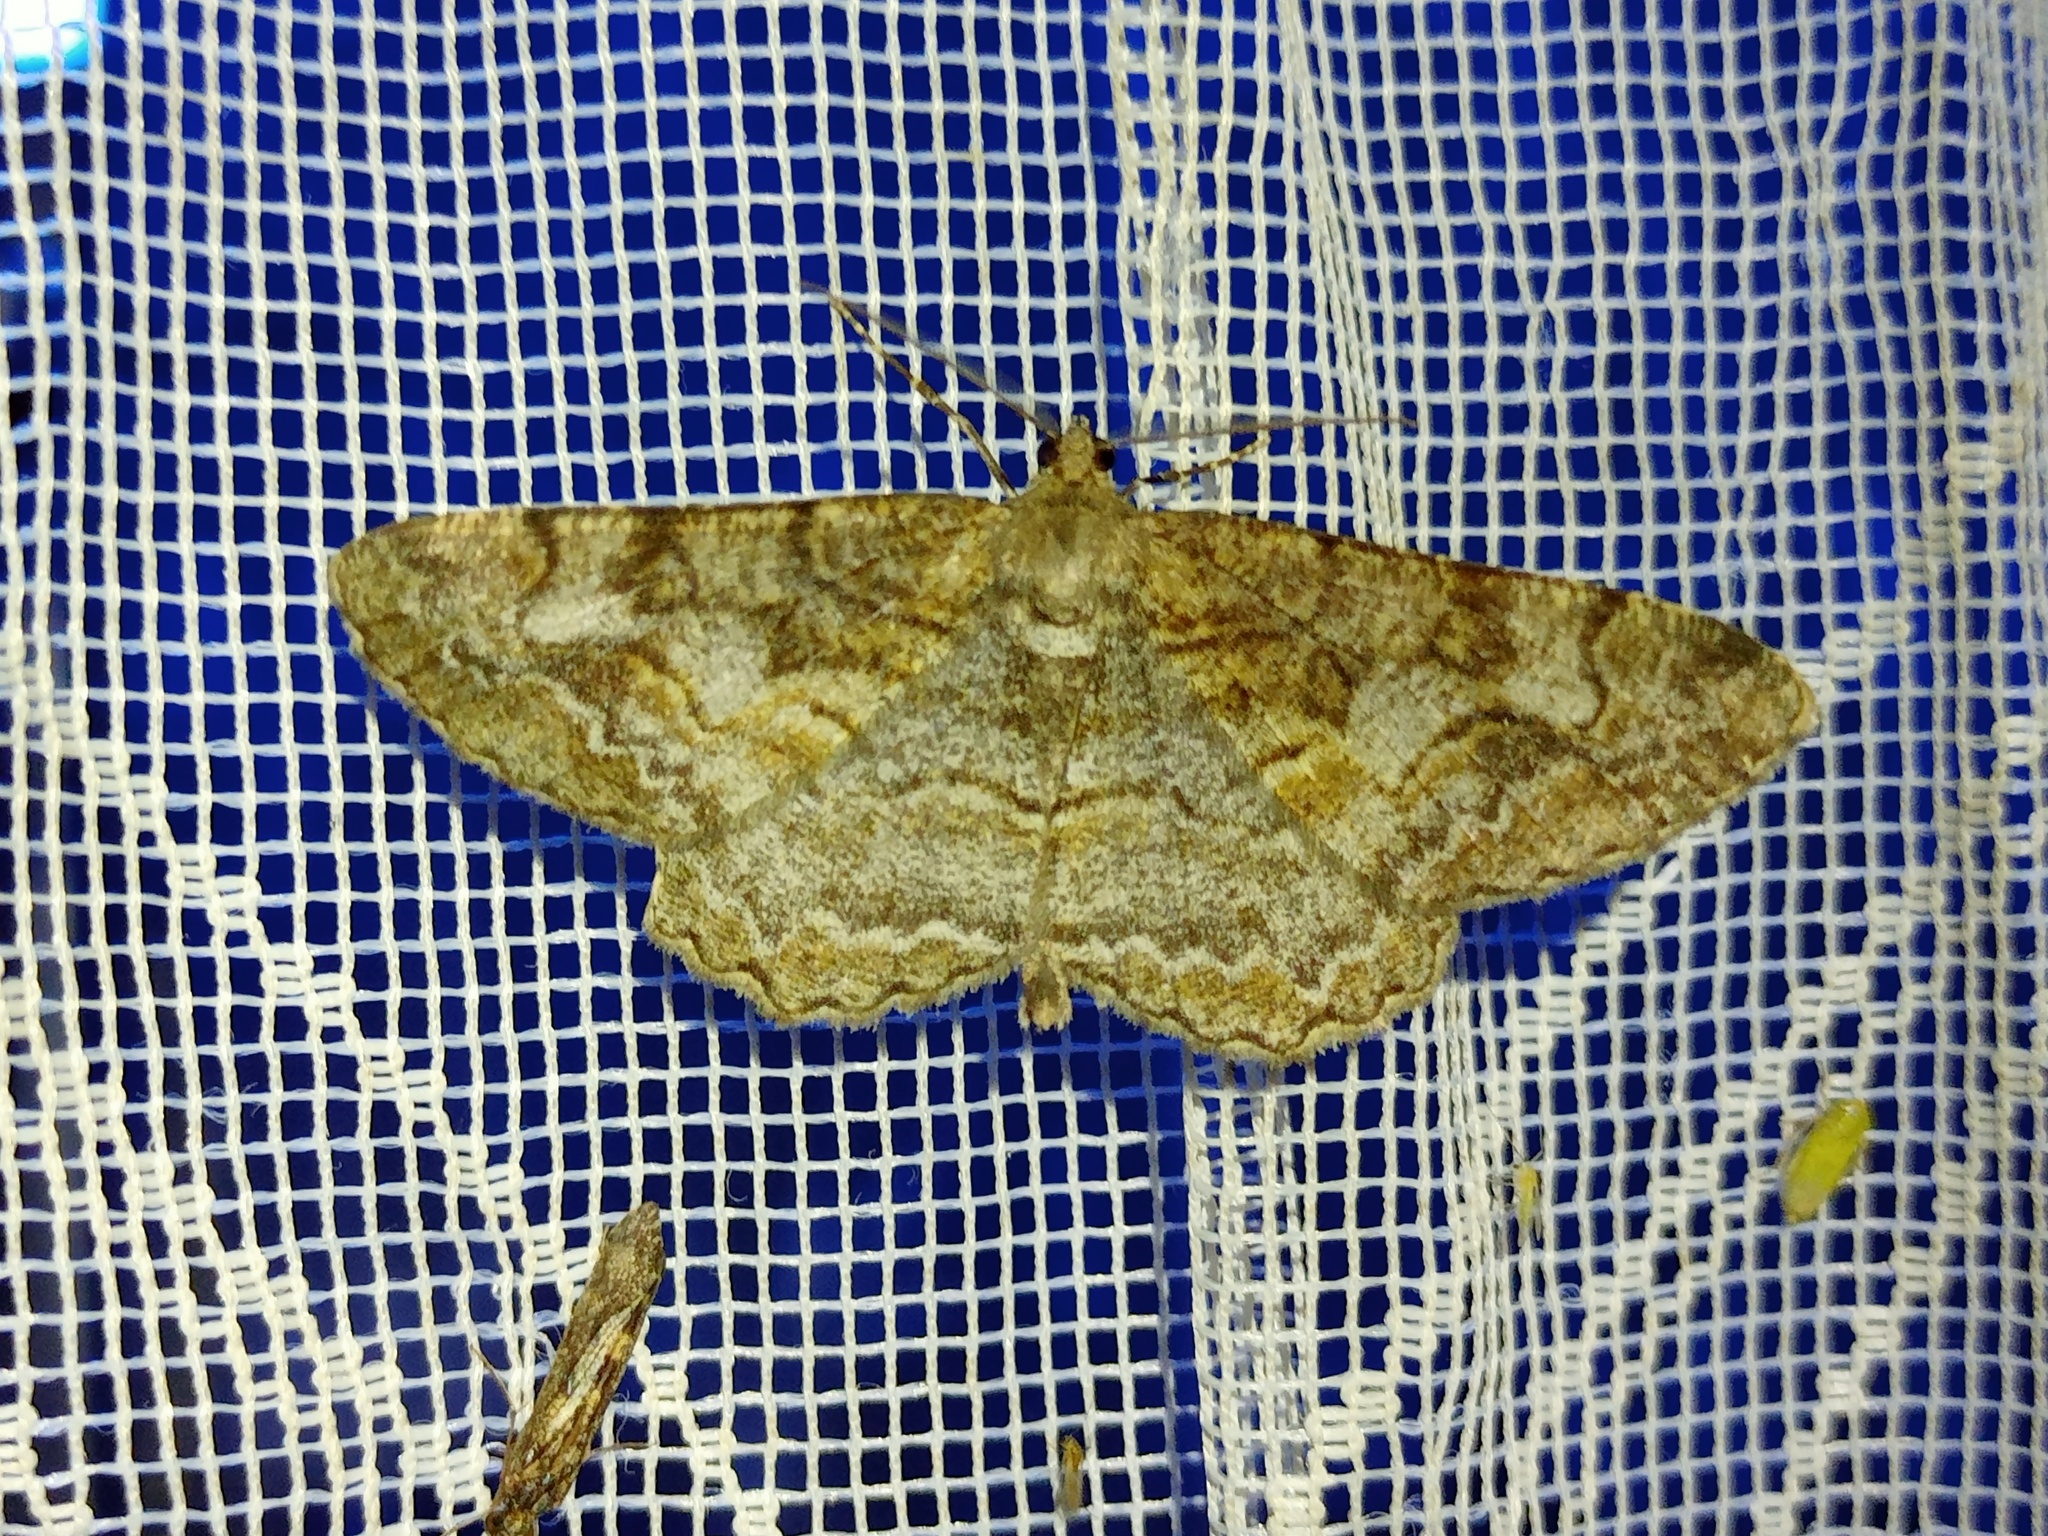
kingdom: Animalia
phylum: Arthropoda
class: Insecta
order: Lepidoptera
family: Geometridae
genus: Alcis
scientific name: Alcis repandata
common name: Mottled beauty
